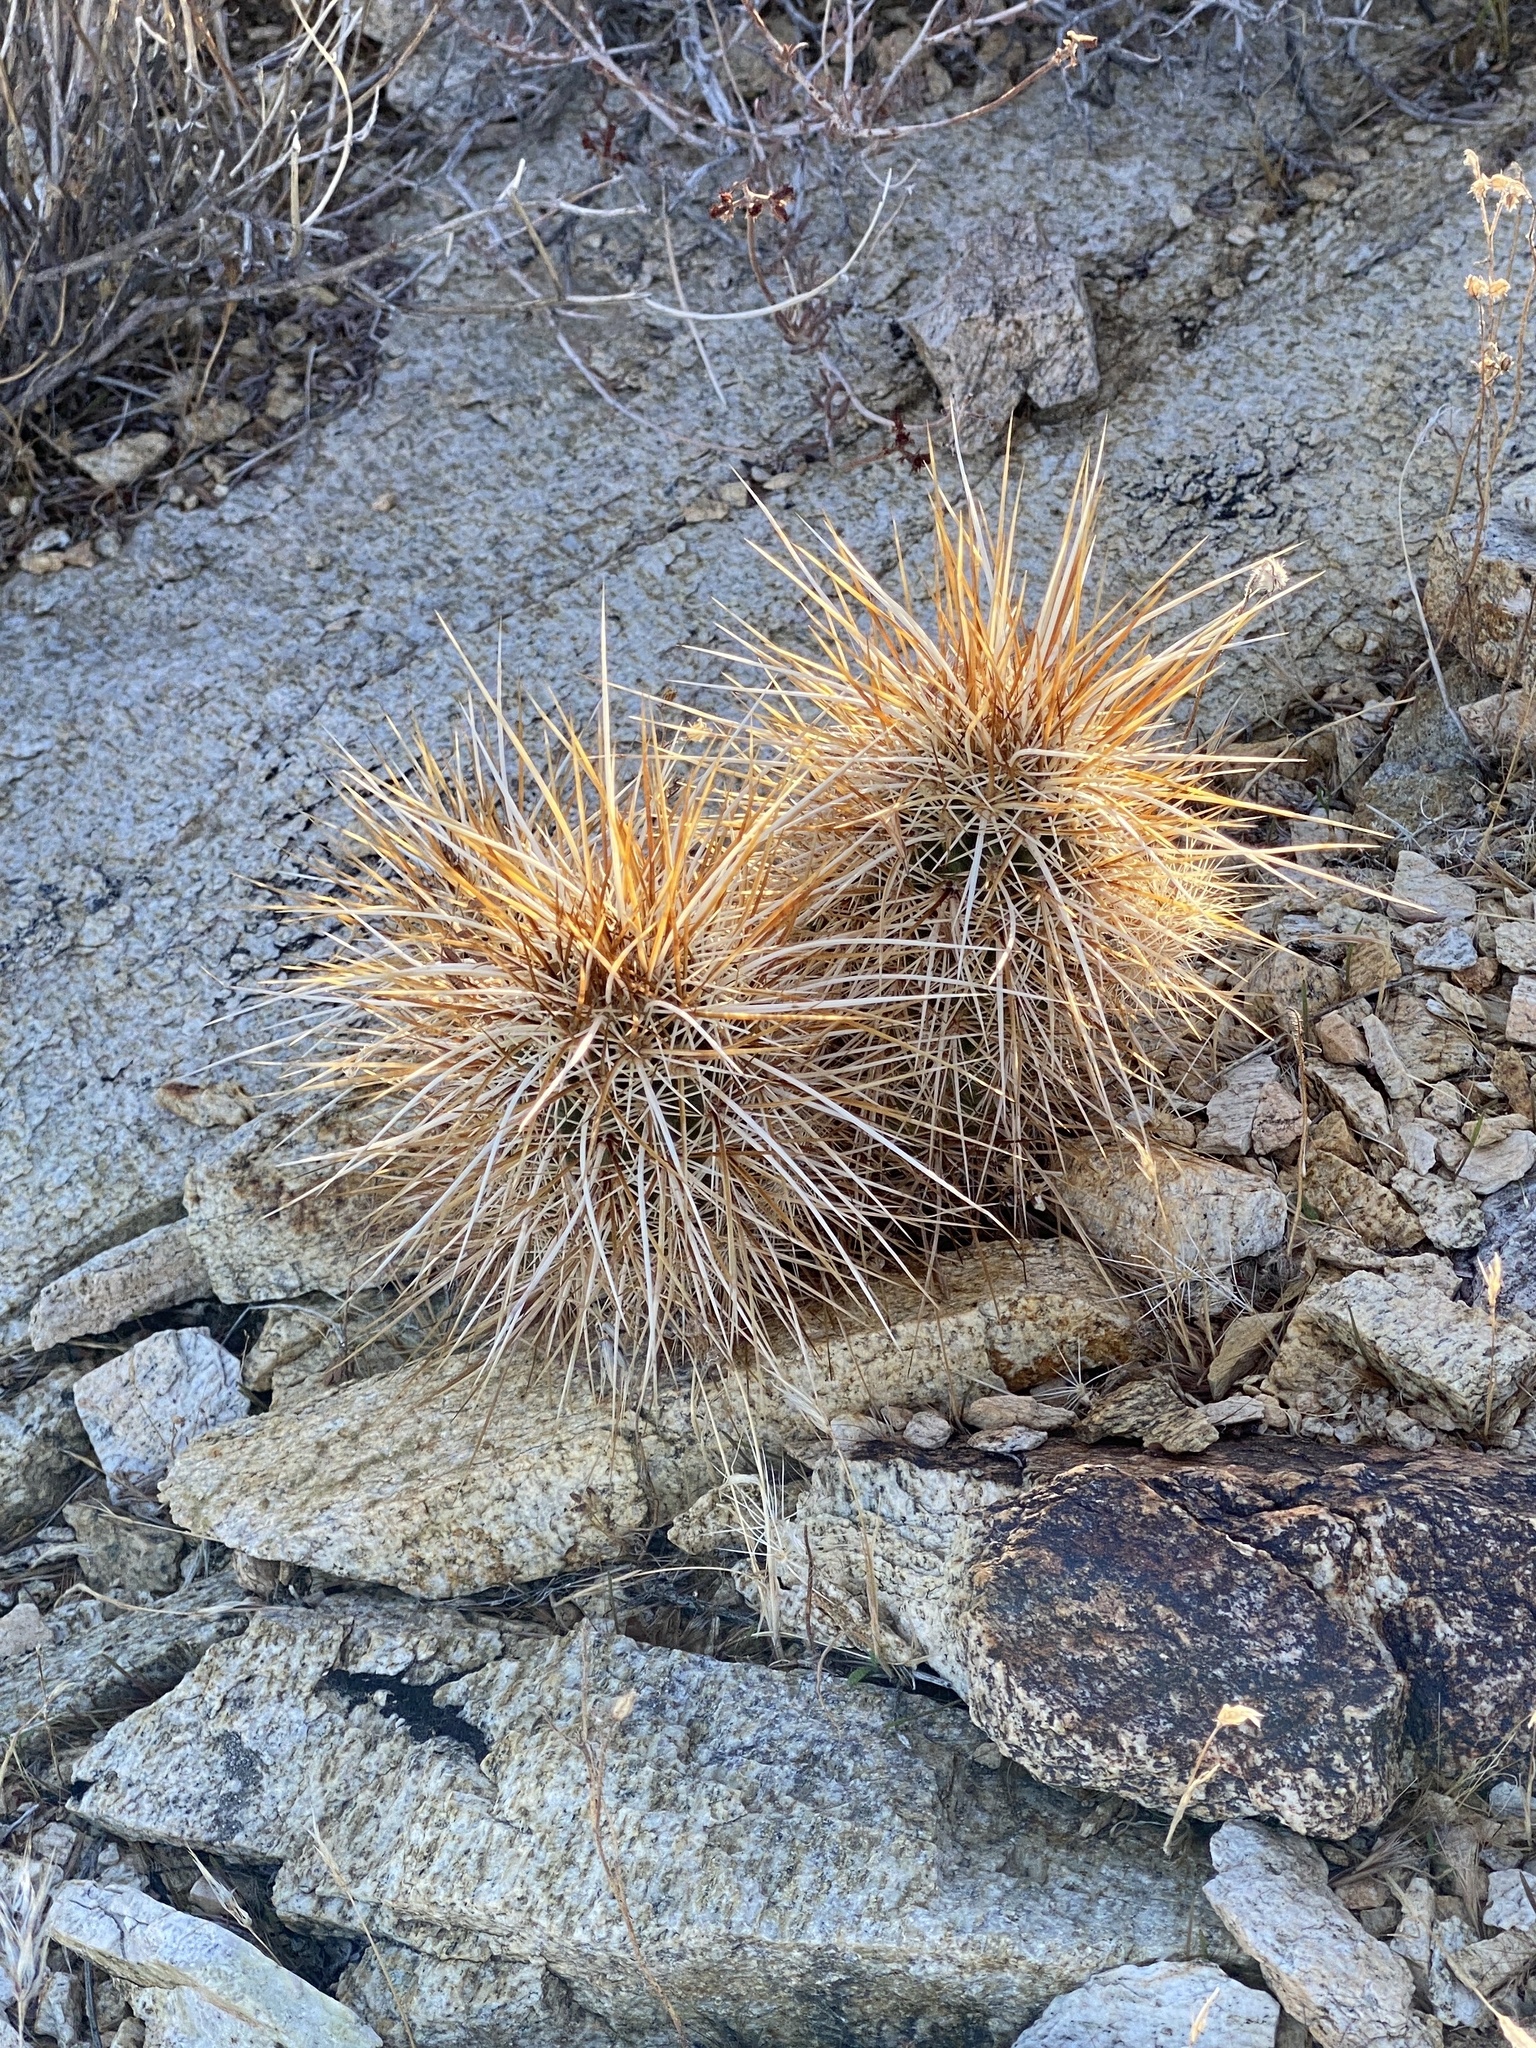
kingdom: Plantae
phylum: Tracheophyta
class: Magnoliopsida
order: Caryophyllales
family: Cactaceae
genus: Echinocereus
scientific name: Echinocereus engelmannii
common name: Engelmann's hedgehog cactus
